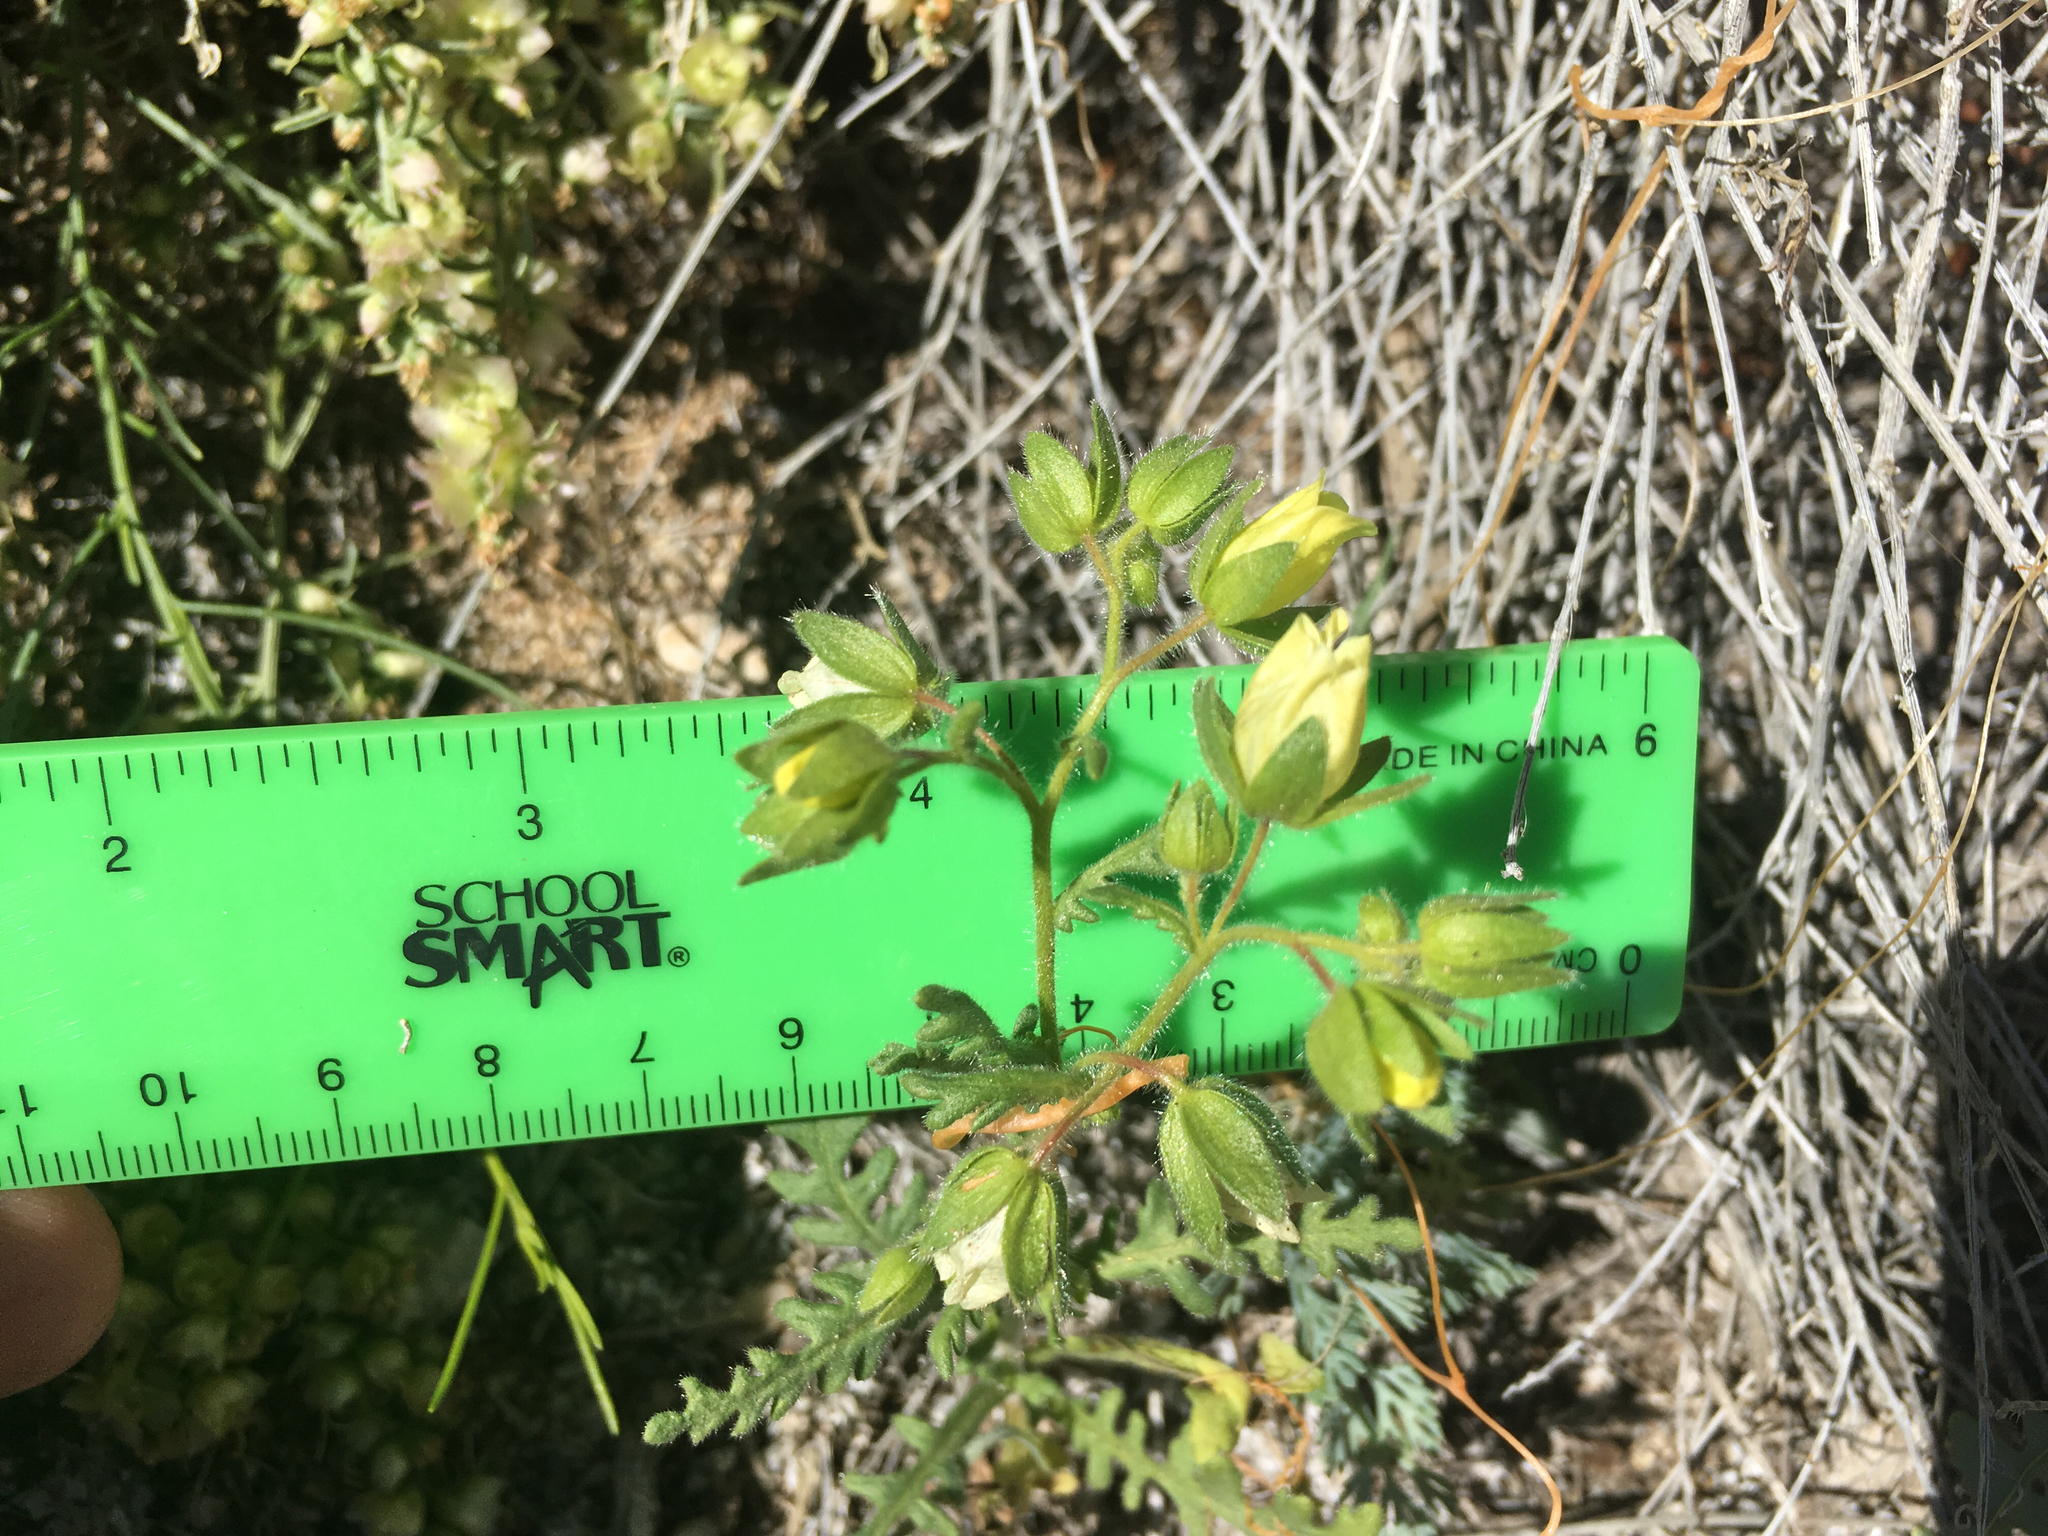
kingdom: Plantae
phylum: Tracheophyta
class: Magnoliopsida
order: Boraginales
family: Hydrophyllaceae
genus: Emmenanthe
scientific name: Emmenanthe penduliflora
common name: Whispering-bells
